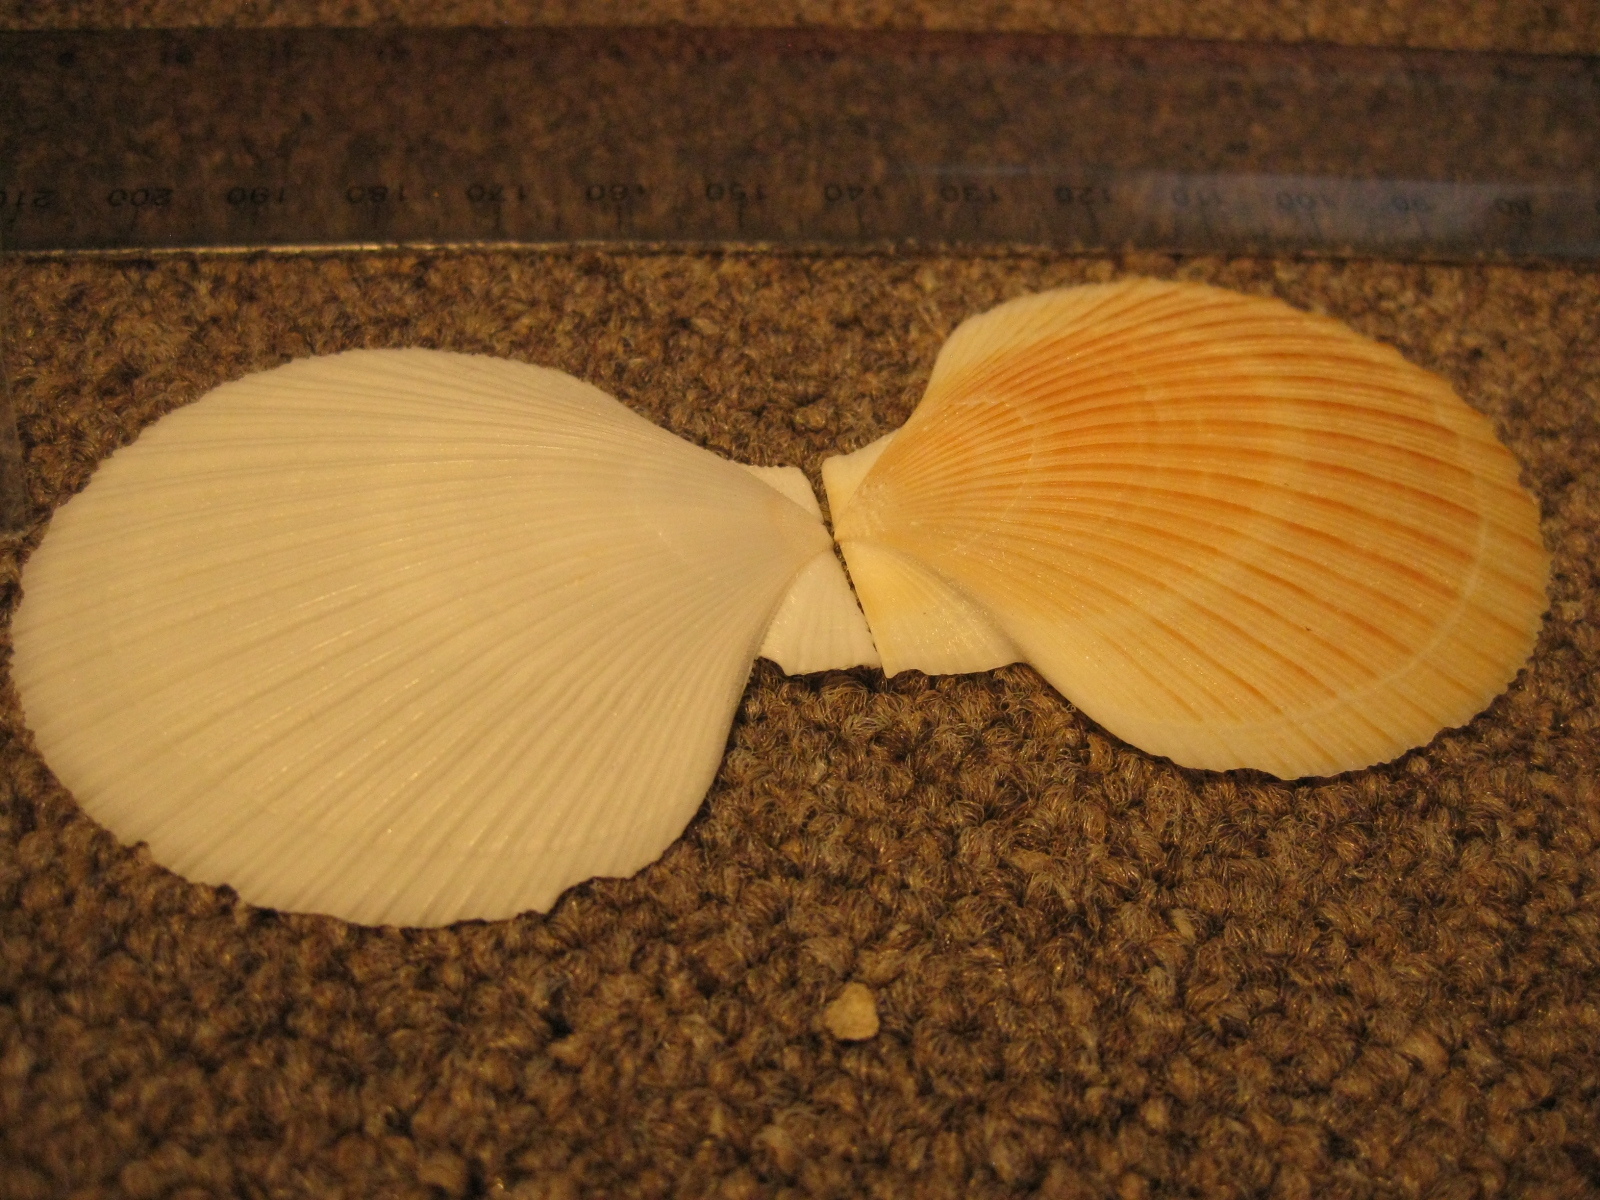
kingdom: Animalia
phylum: Mollusca
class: Bivalvia
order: Pectinida
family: Pectinidae
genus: Zygochlamys
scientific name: Zygochlamys delicatula
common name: Delicate scallop
